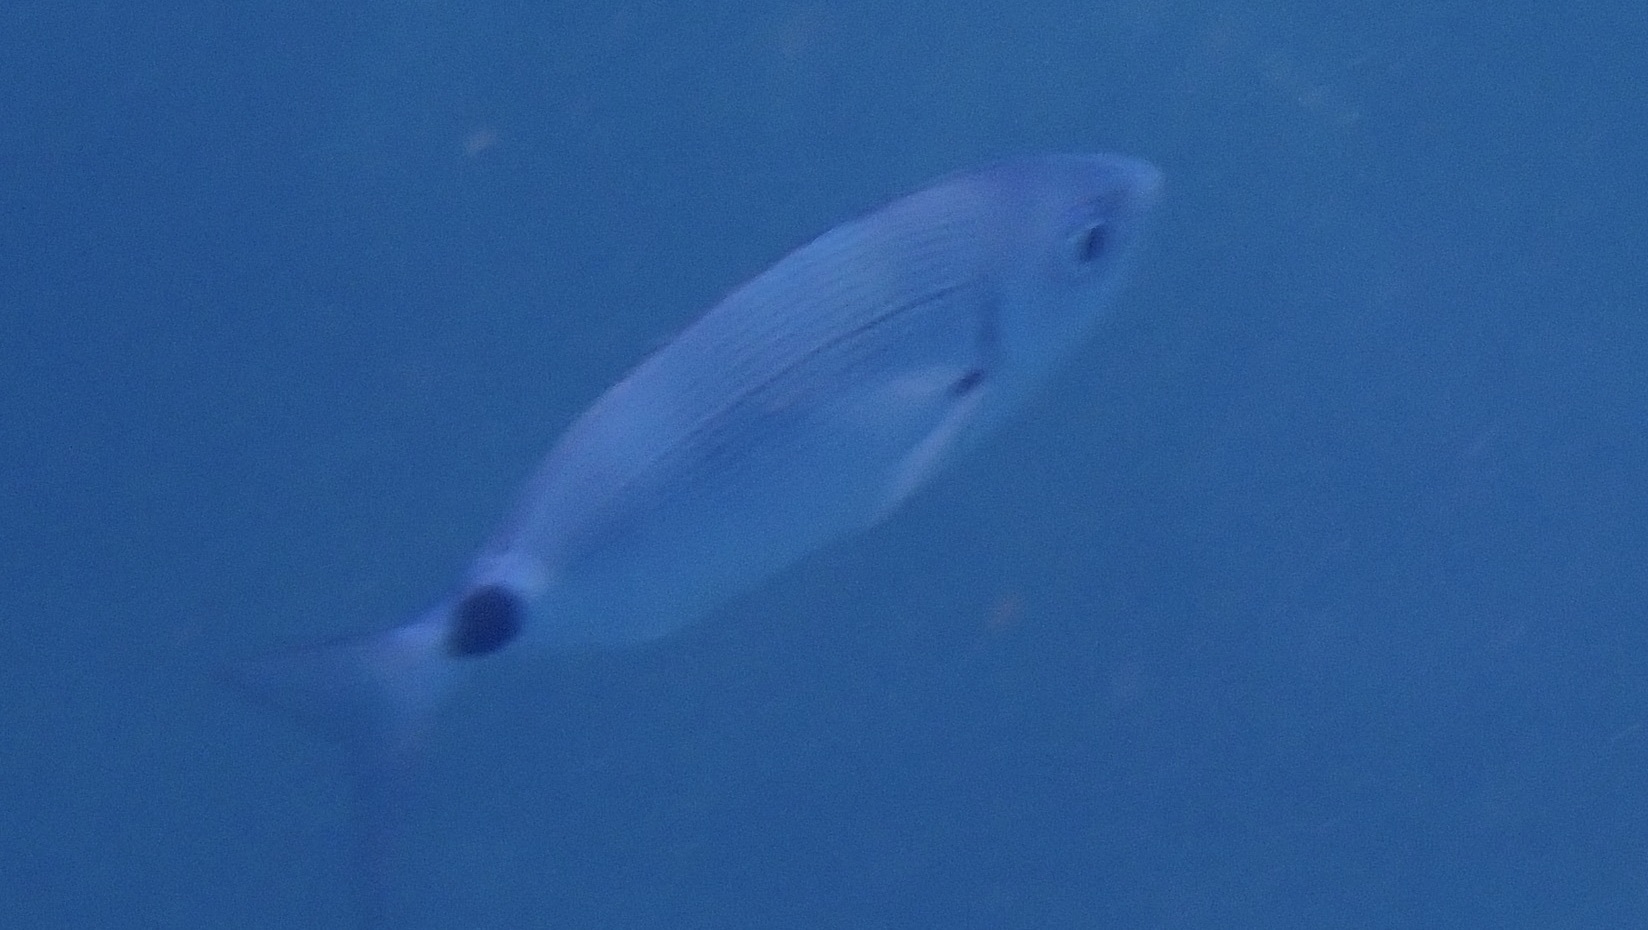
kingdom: Animalia
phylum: Chordata
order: Perciformes
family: Sparidae
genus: Oblada
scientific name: Oblada melanura
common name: Saddled seabream
